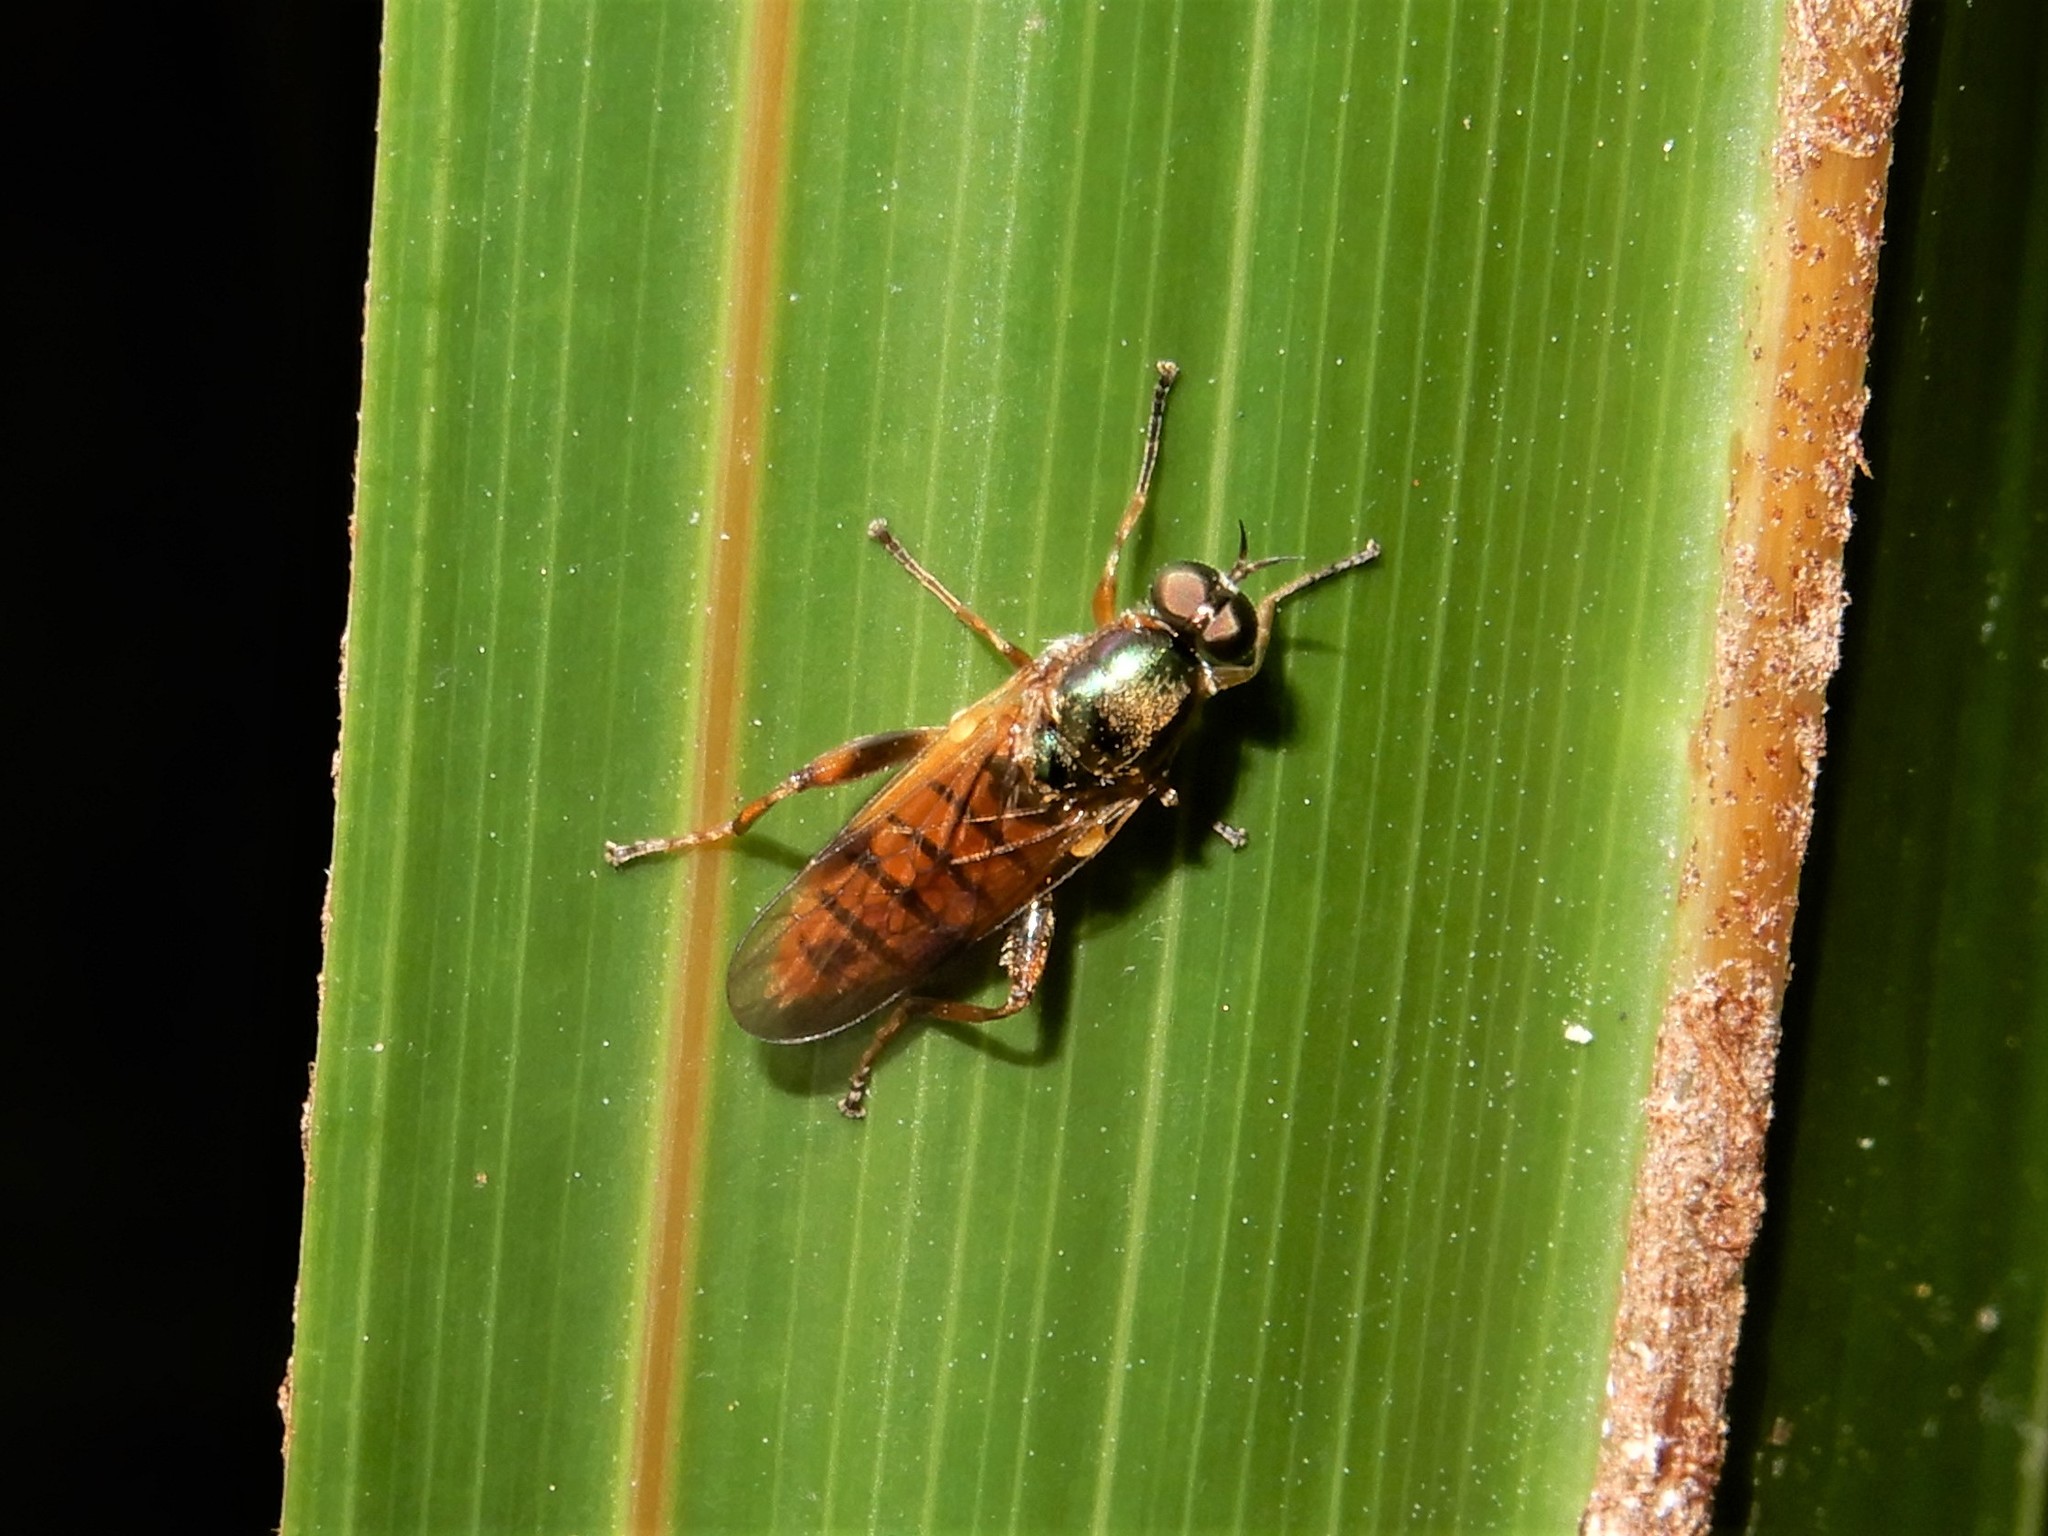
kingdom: Animalia
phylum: Arthropoda
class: Insecta
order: Diptera
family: Stratiomyidae
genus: Neactina
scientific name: Neactina opposita
